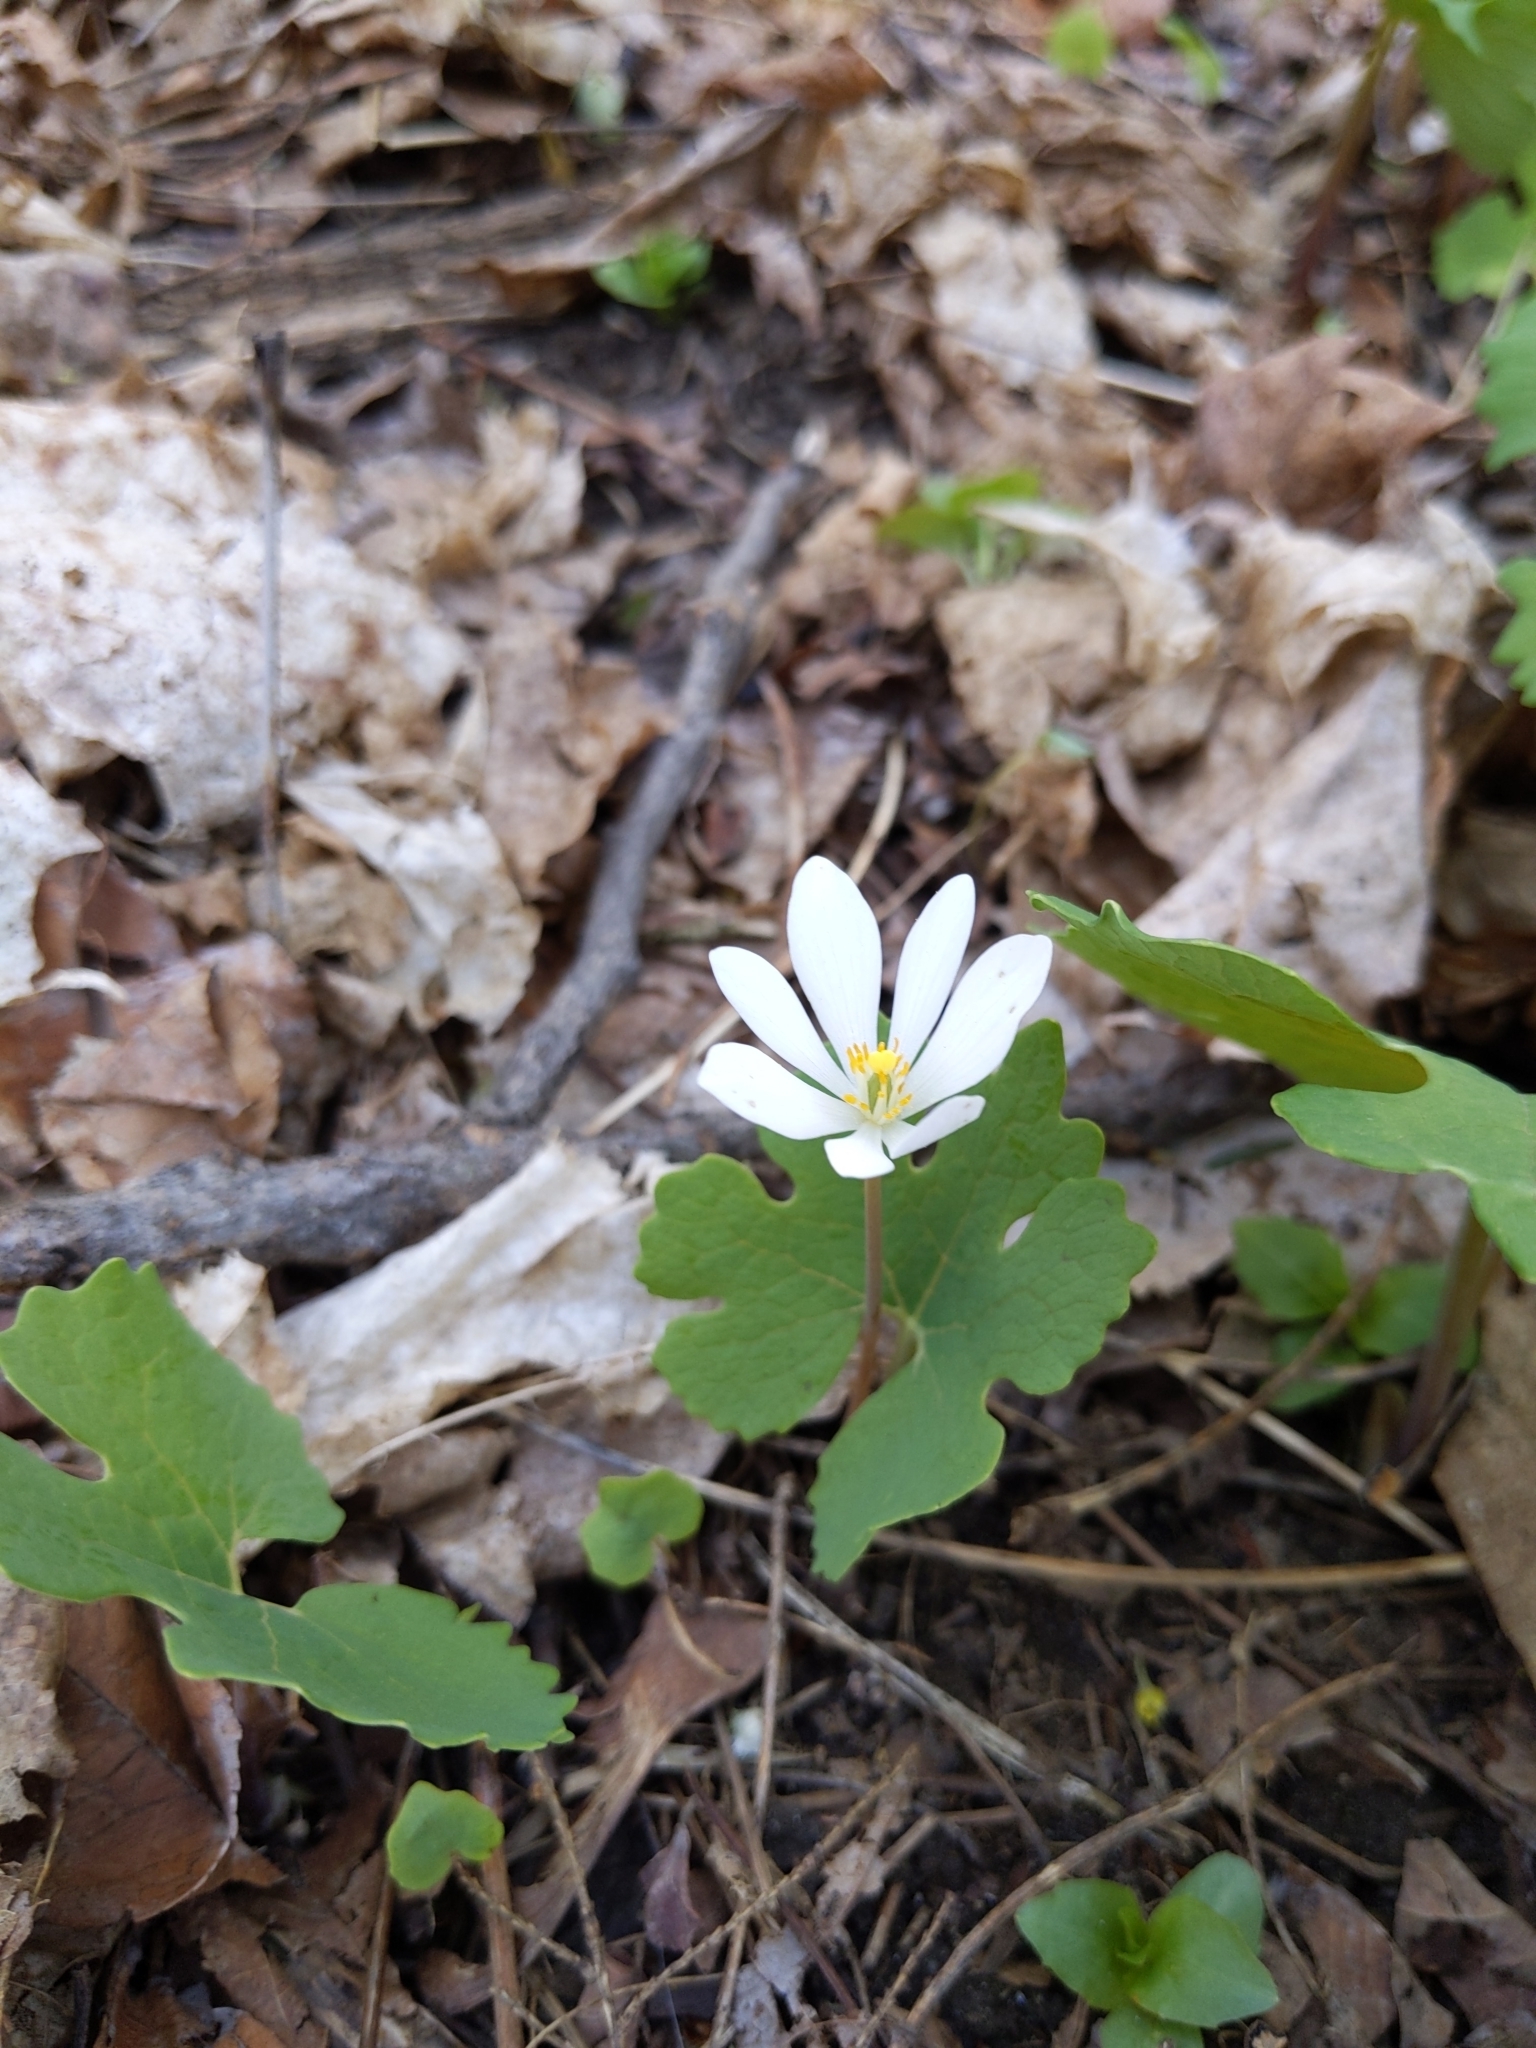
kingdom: Plantae
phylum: Tracheophyta
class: Magnoliopsida
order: Ranunculales
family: Papaveraceae
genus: Sanguinaria
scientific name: Sanguinaria canadensis
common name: Bloodroot
